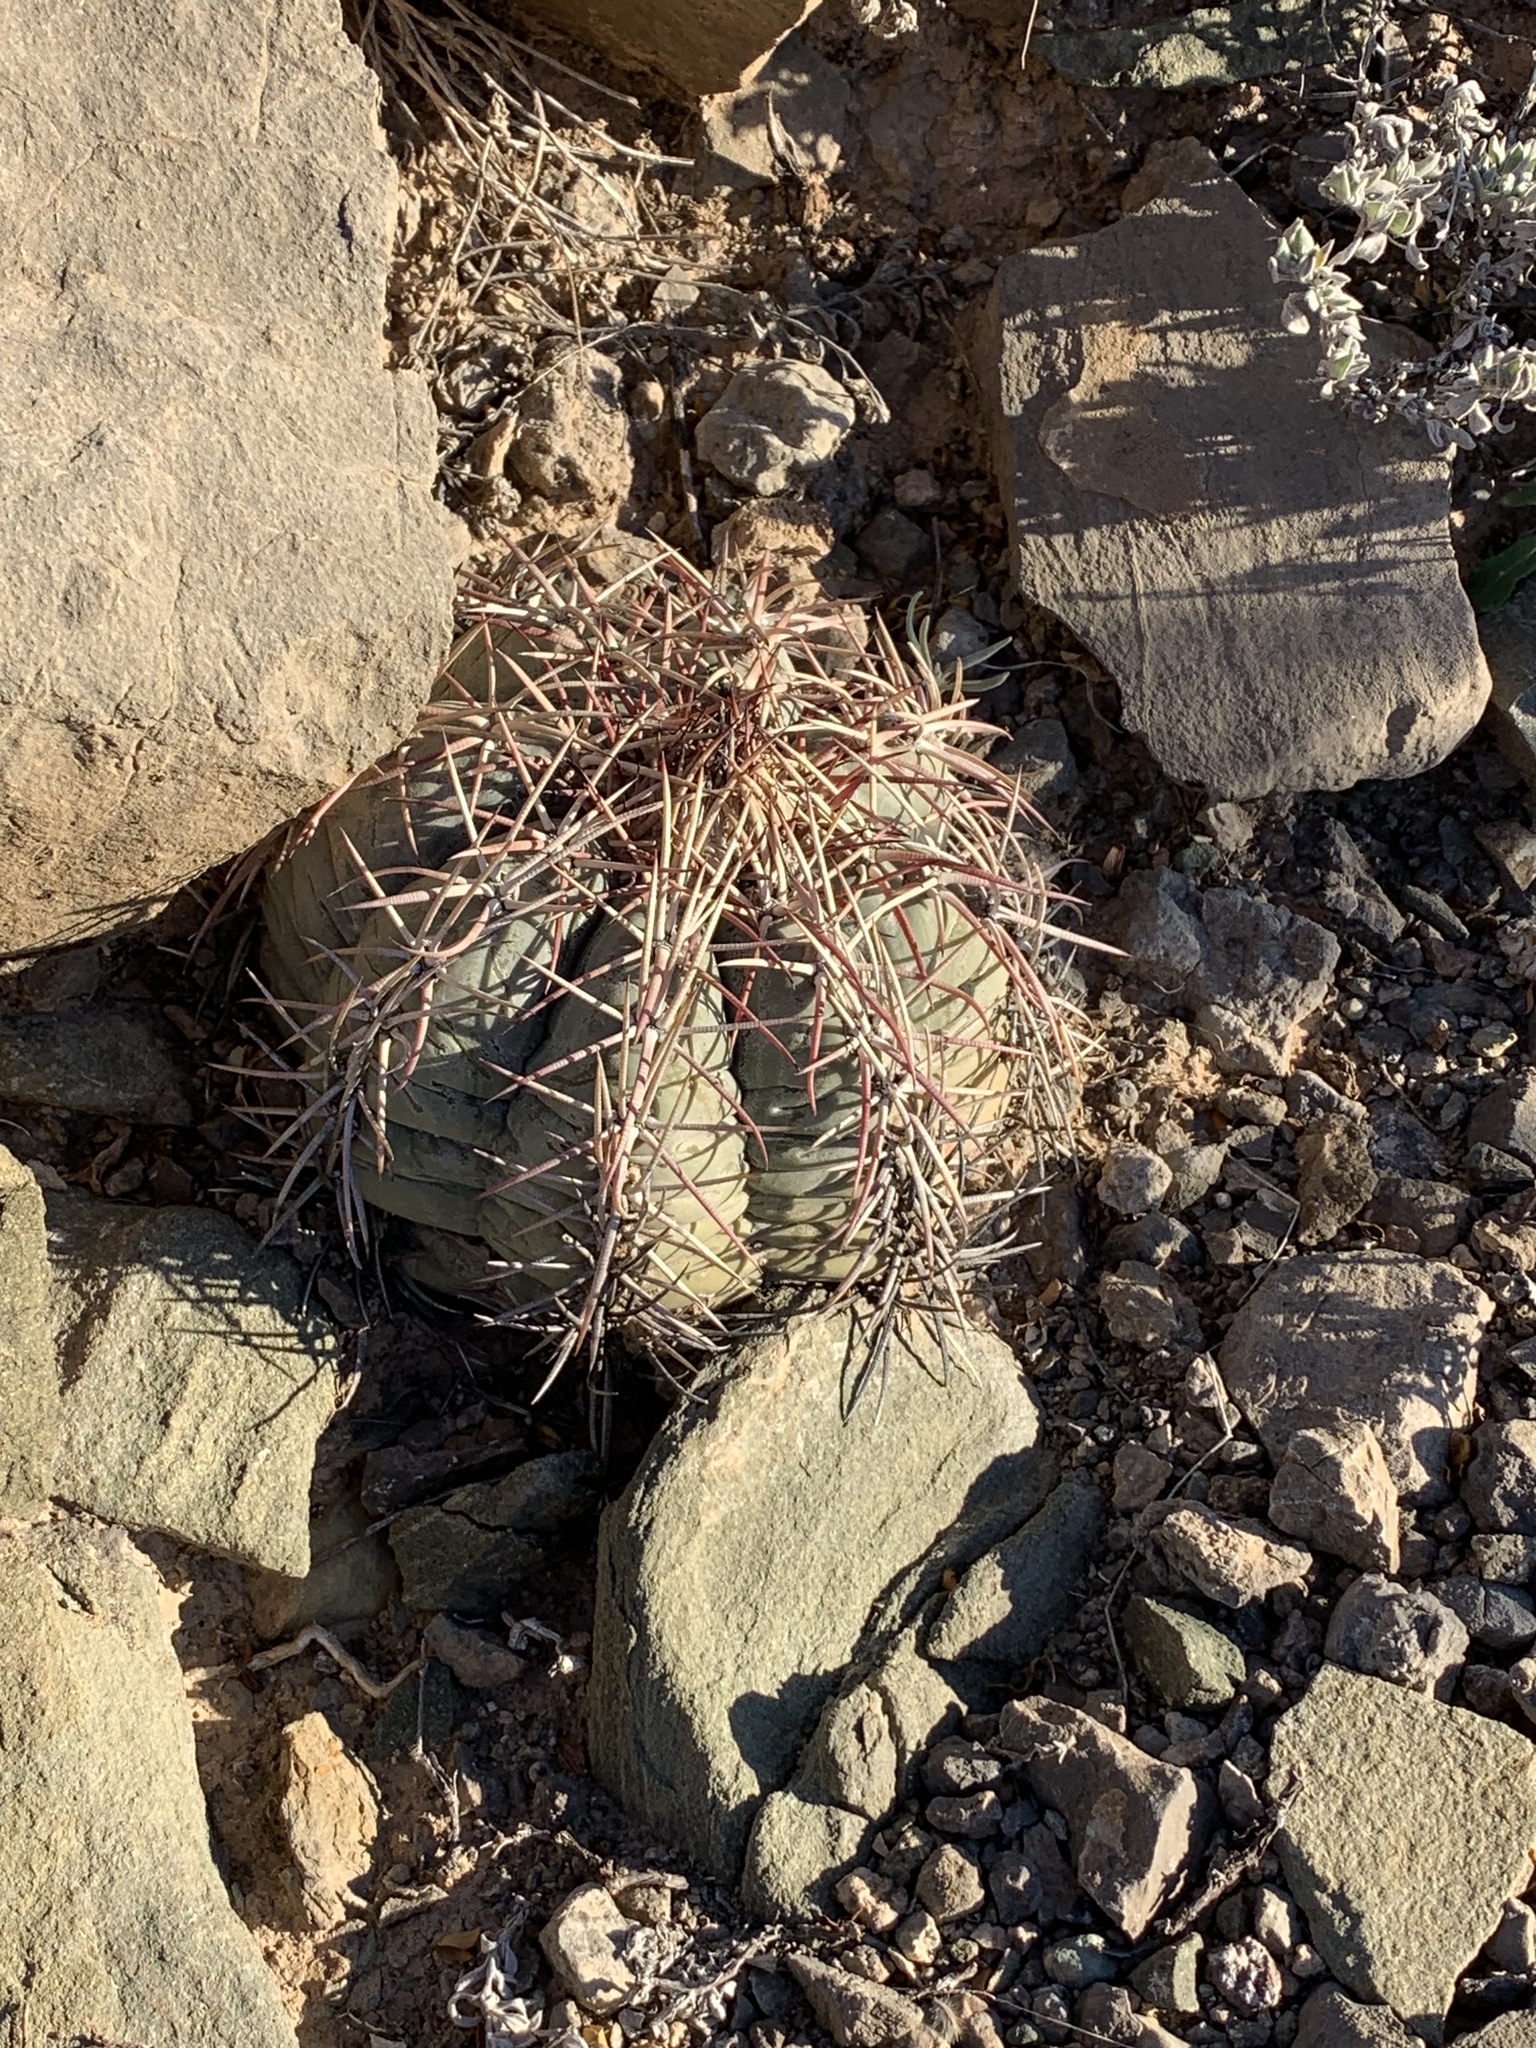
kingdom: Plantae
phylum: Tracheophyta
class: Magnoliopsida
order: Caryophyllales
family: Cactaceae
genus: Echinocactus
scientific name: Echinocactus horizonthalonius
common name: Devilshead
